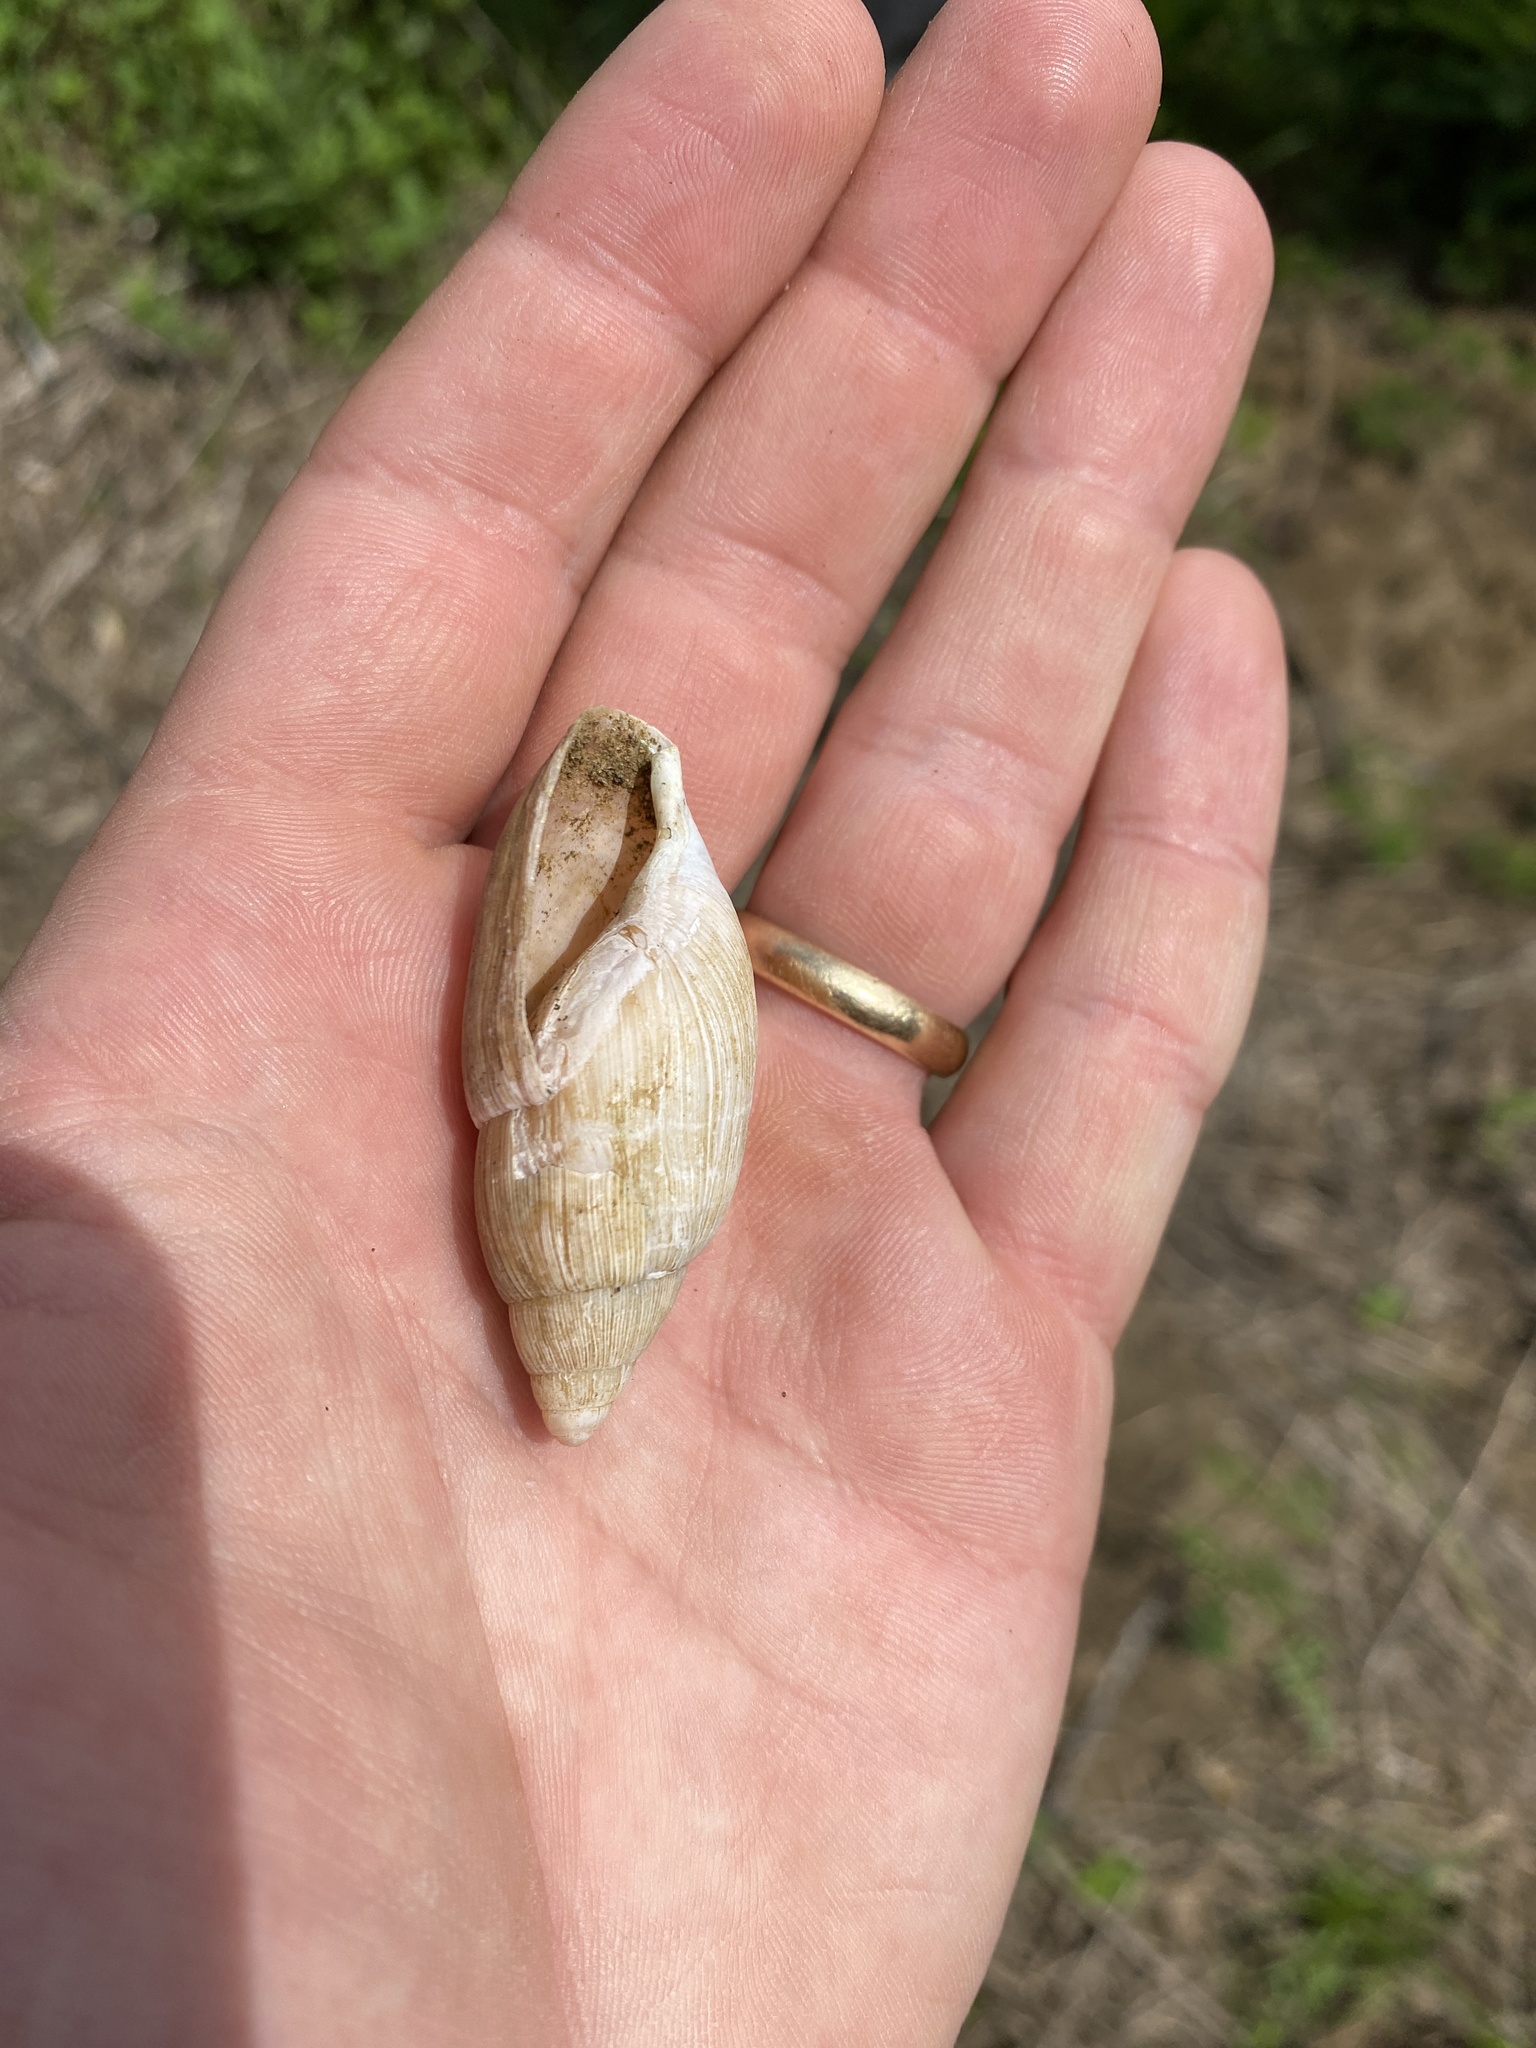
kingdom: Animalia
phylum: Mollusca
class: Gastropoda
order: Stylommatophora
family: Spiraxidae
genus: Euglandina
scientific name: Euglandina rosea
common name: Rosy wolfsnail
